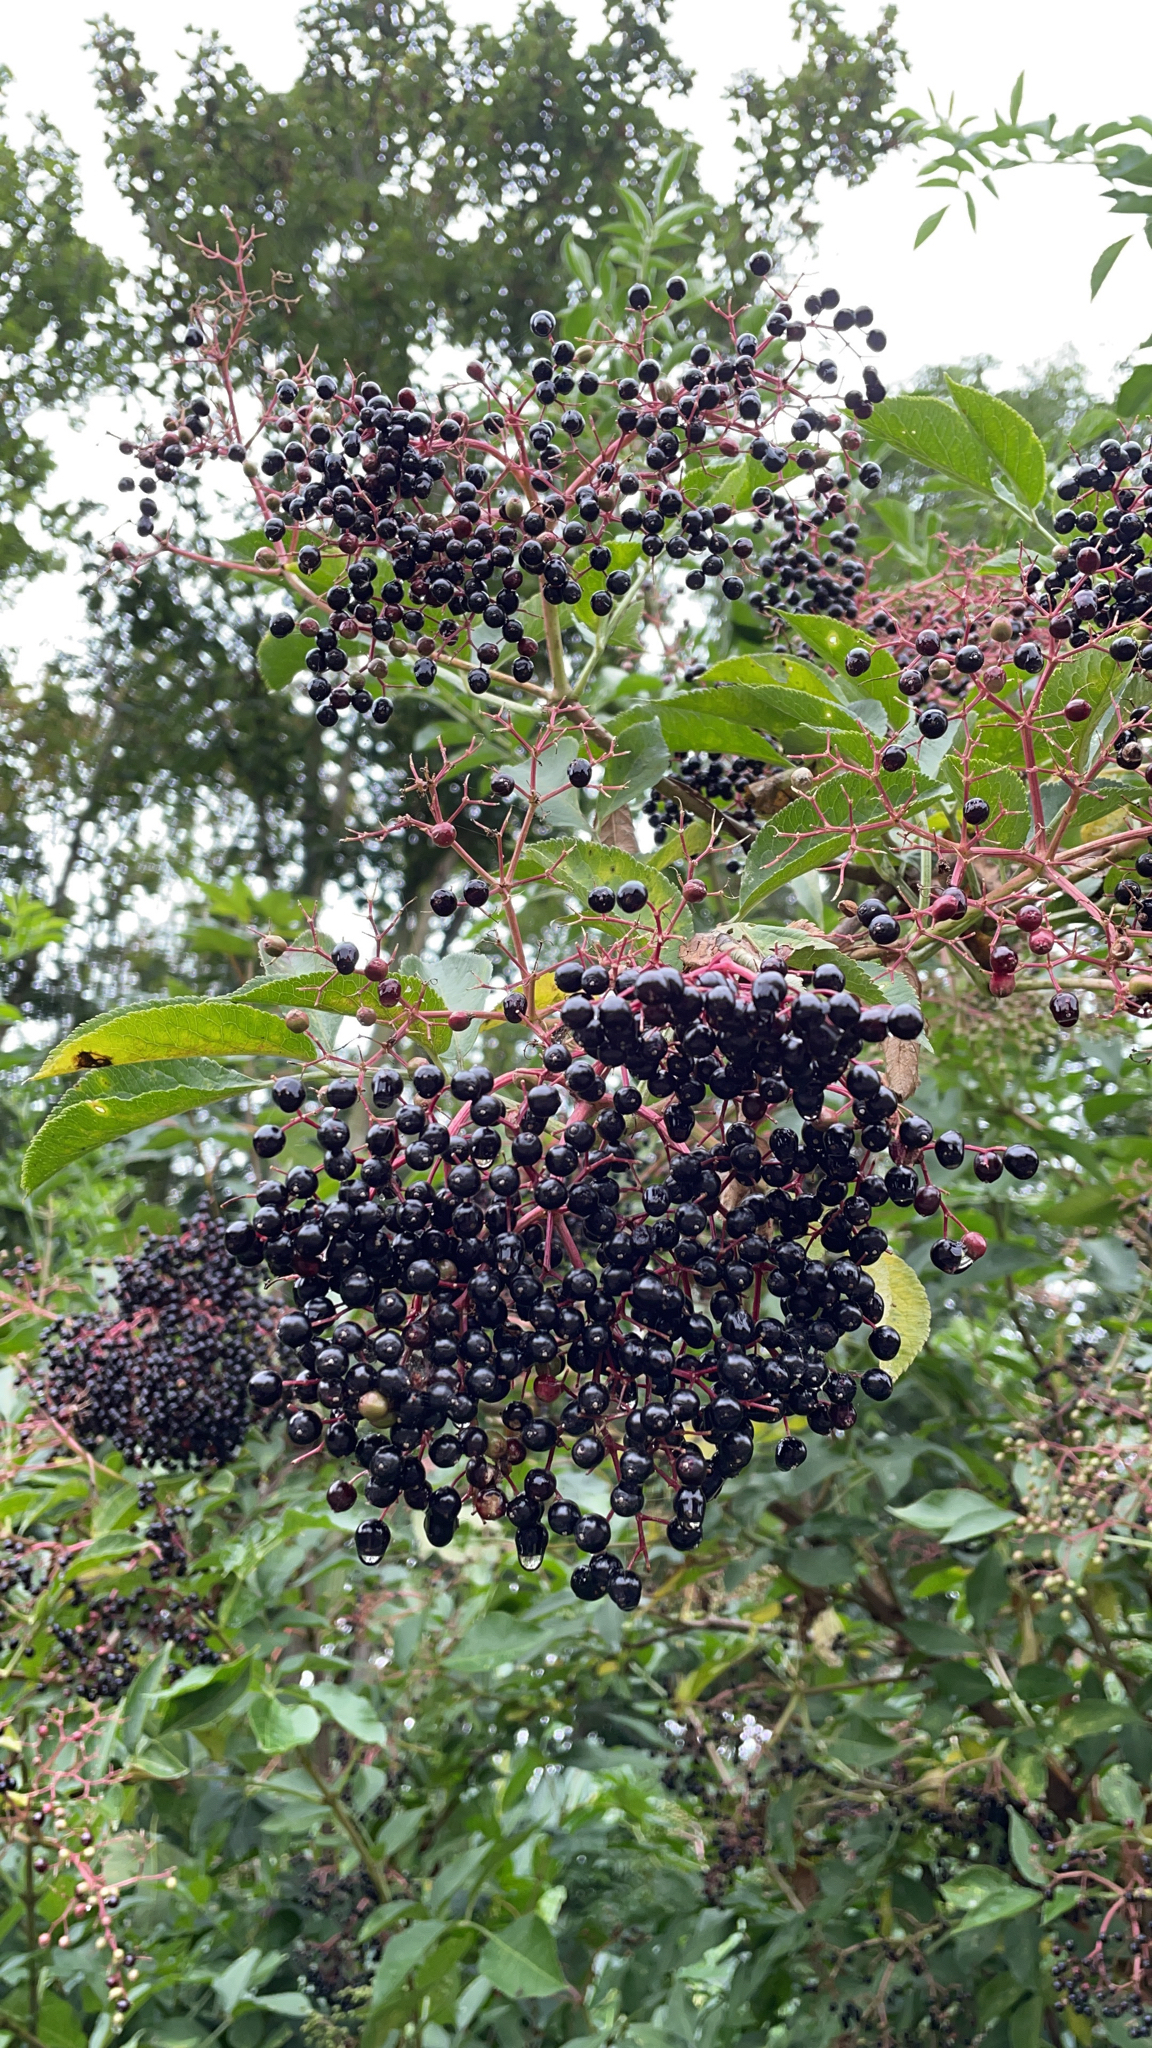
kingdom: Plantae
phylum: Tracheophyta
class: Magnoliopsida
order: Dipsacales
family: Viburnaceae
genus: Sambucus
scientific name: Sambucus nigra
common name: Elder
